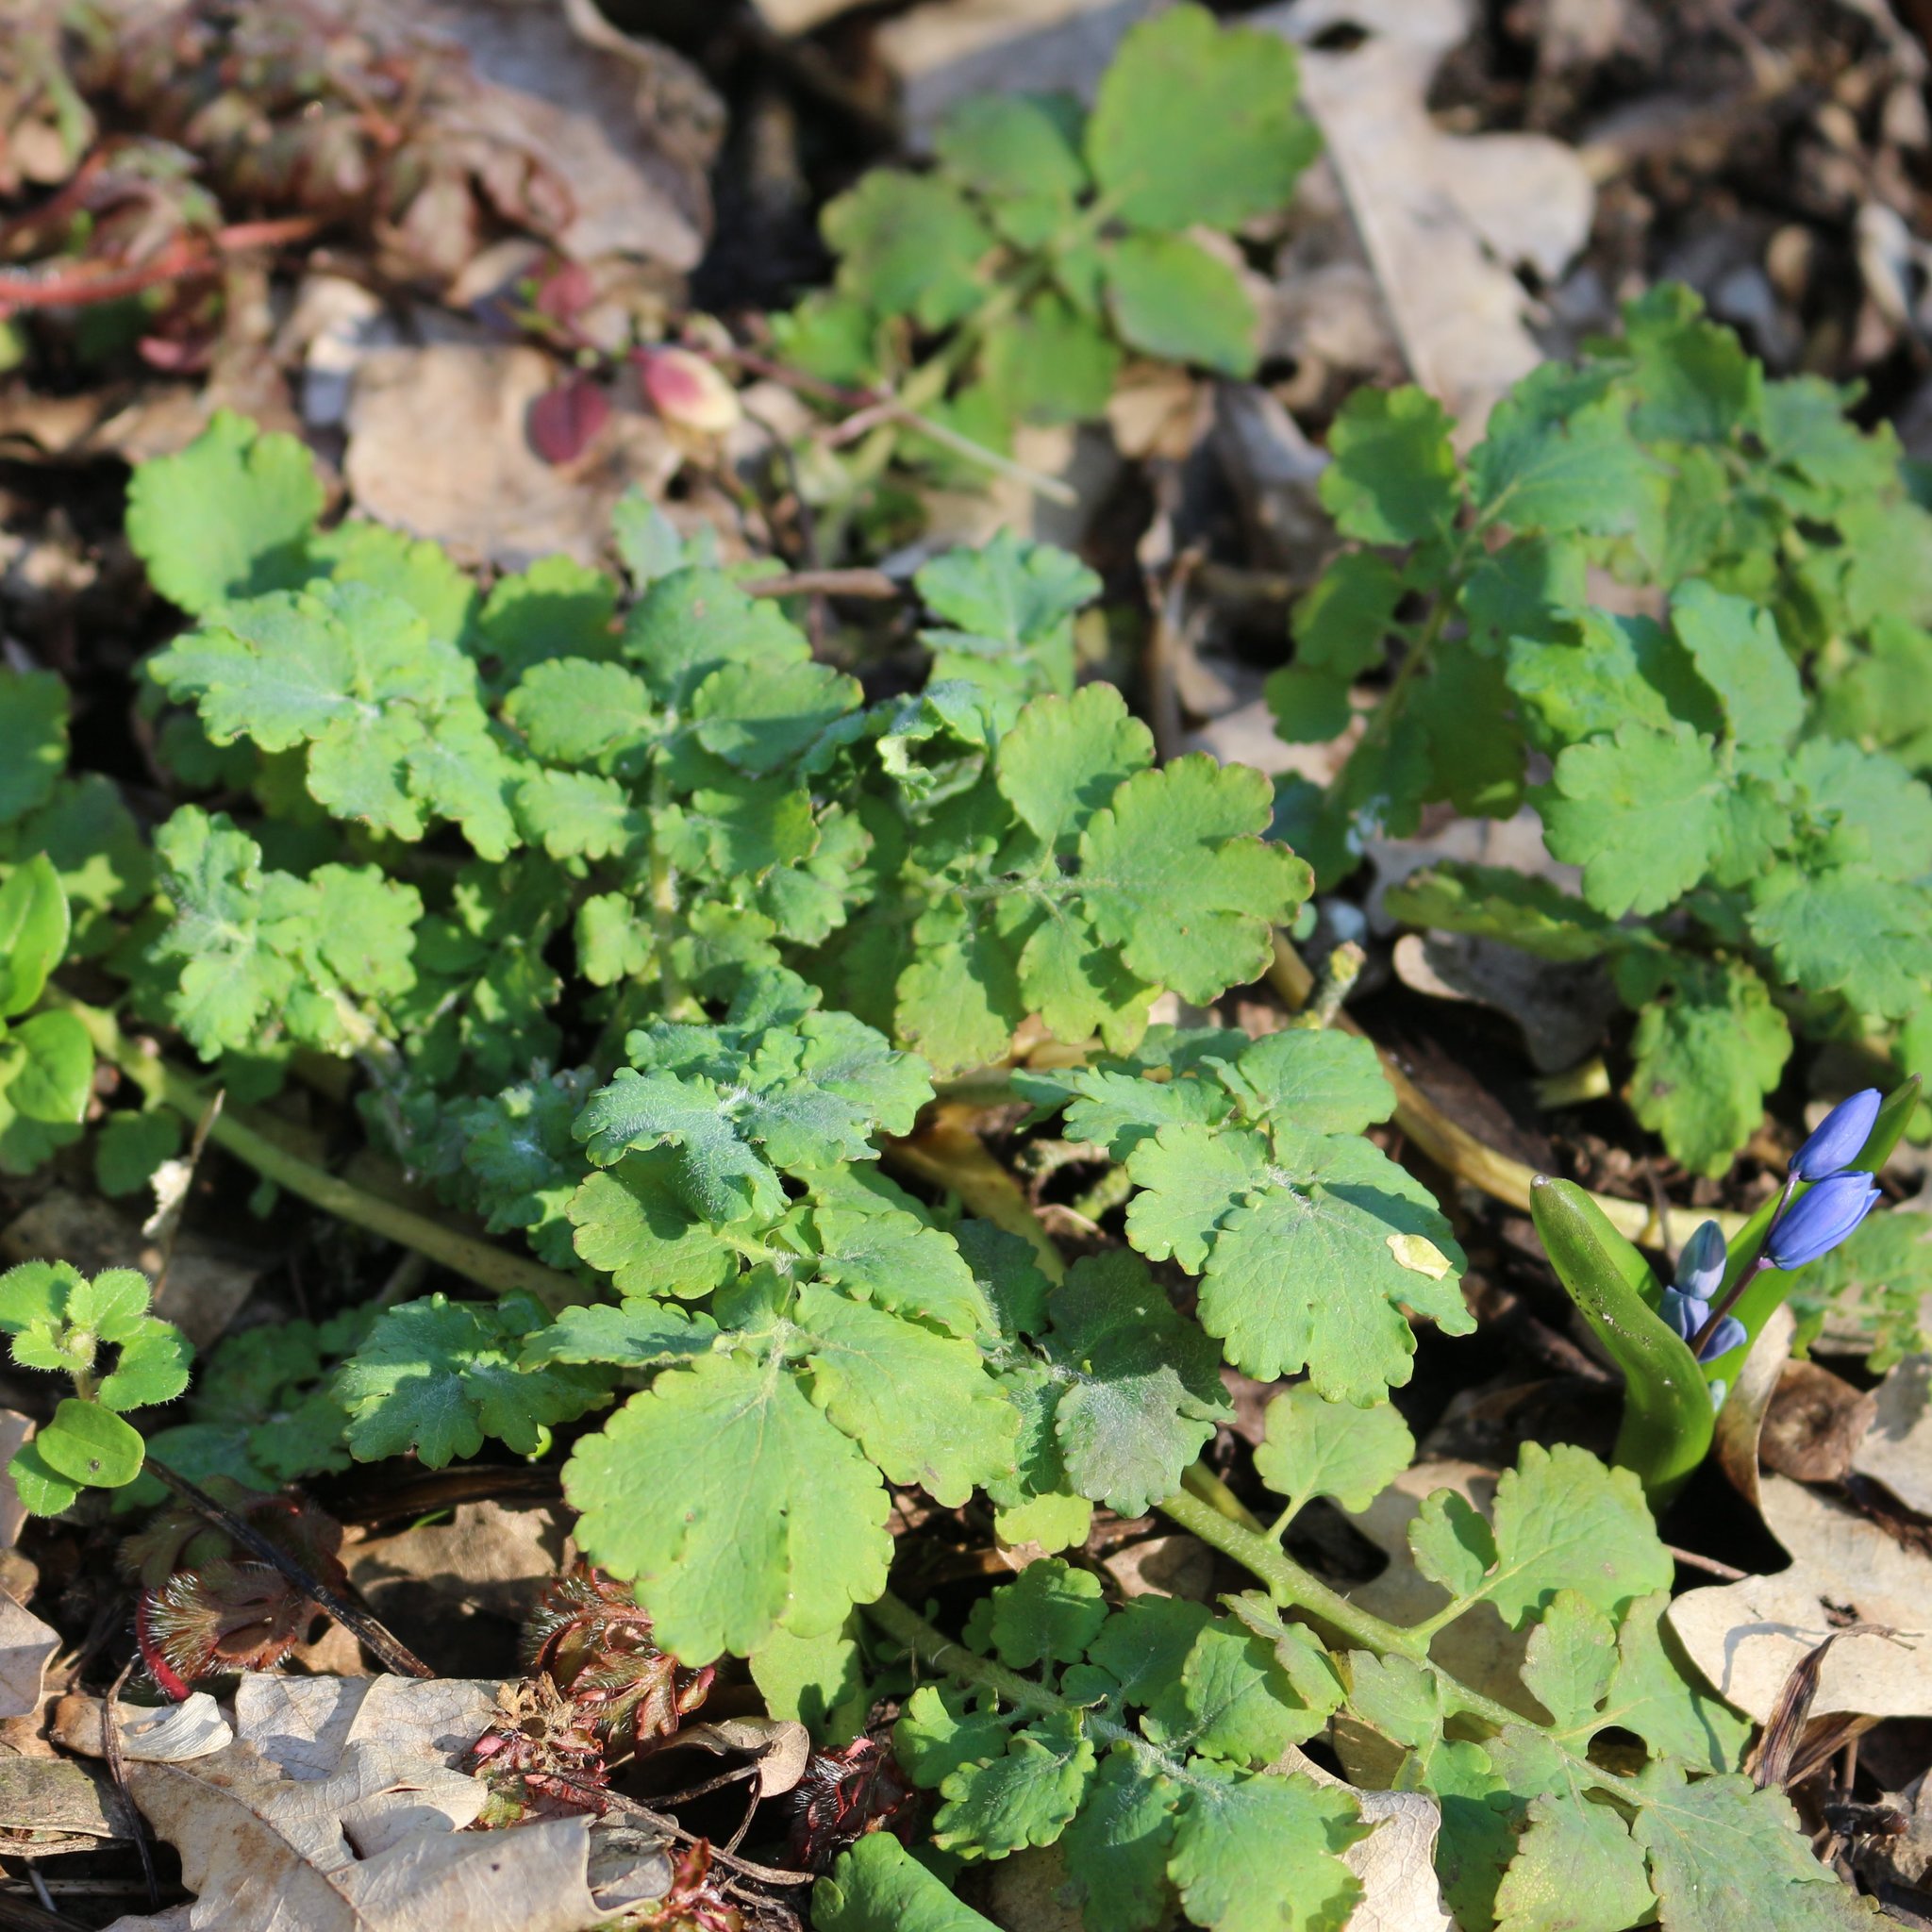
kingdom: Plantae
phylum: Tracheophyta
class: Magnoliopsida
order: Ranunculales
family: Papaveraceae
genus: Chelidonium
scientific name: Chelidonium majus
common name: Greater celandine
